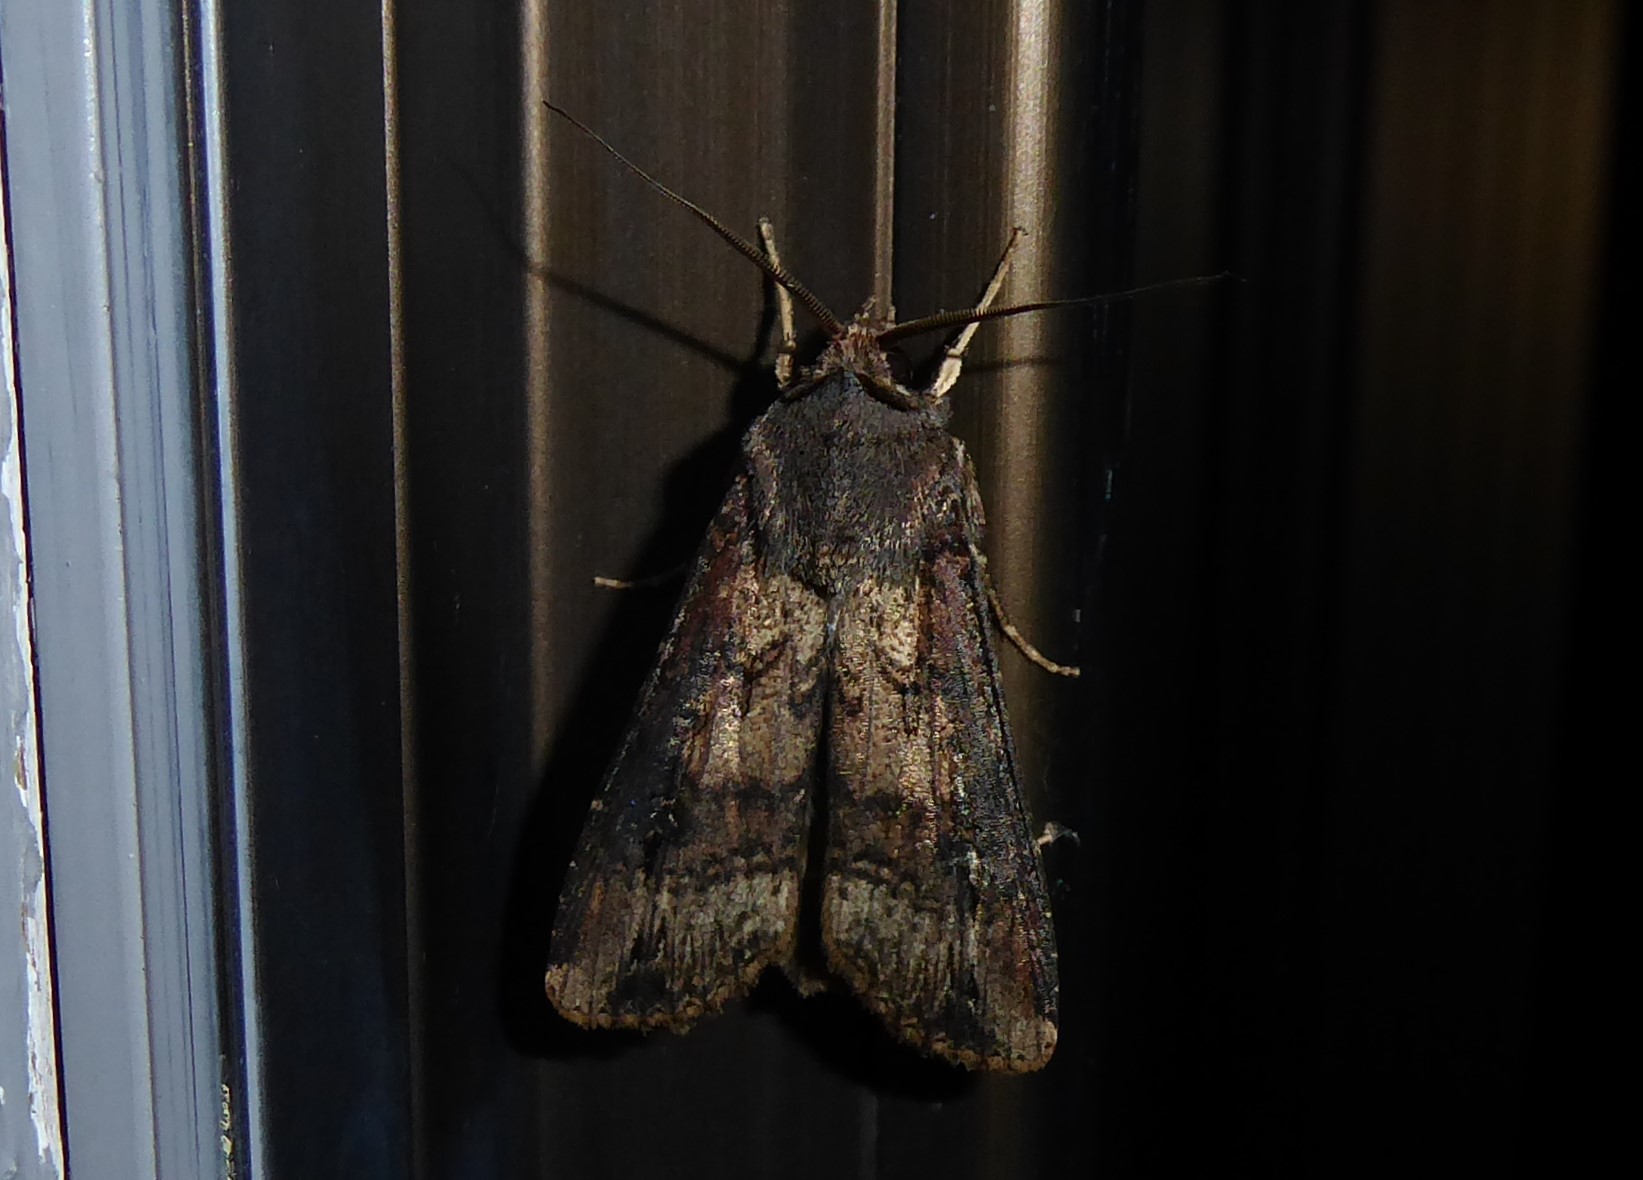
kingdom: Animalia
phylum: Arthropoda
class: Insecta
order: Lepidoptera
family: Noctuidae
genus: Agrotis
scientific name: Agrotis ipsilon
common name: Dark sword-grass
